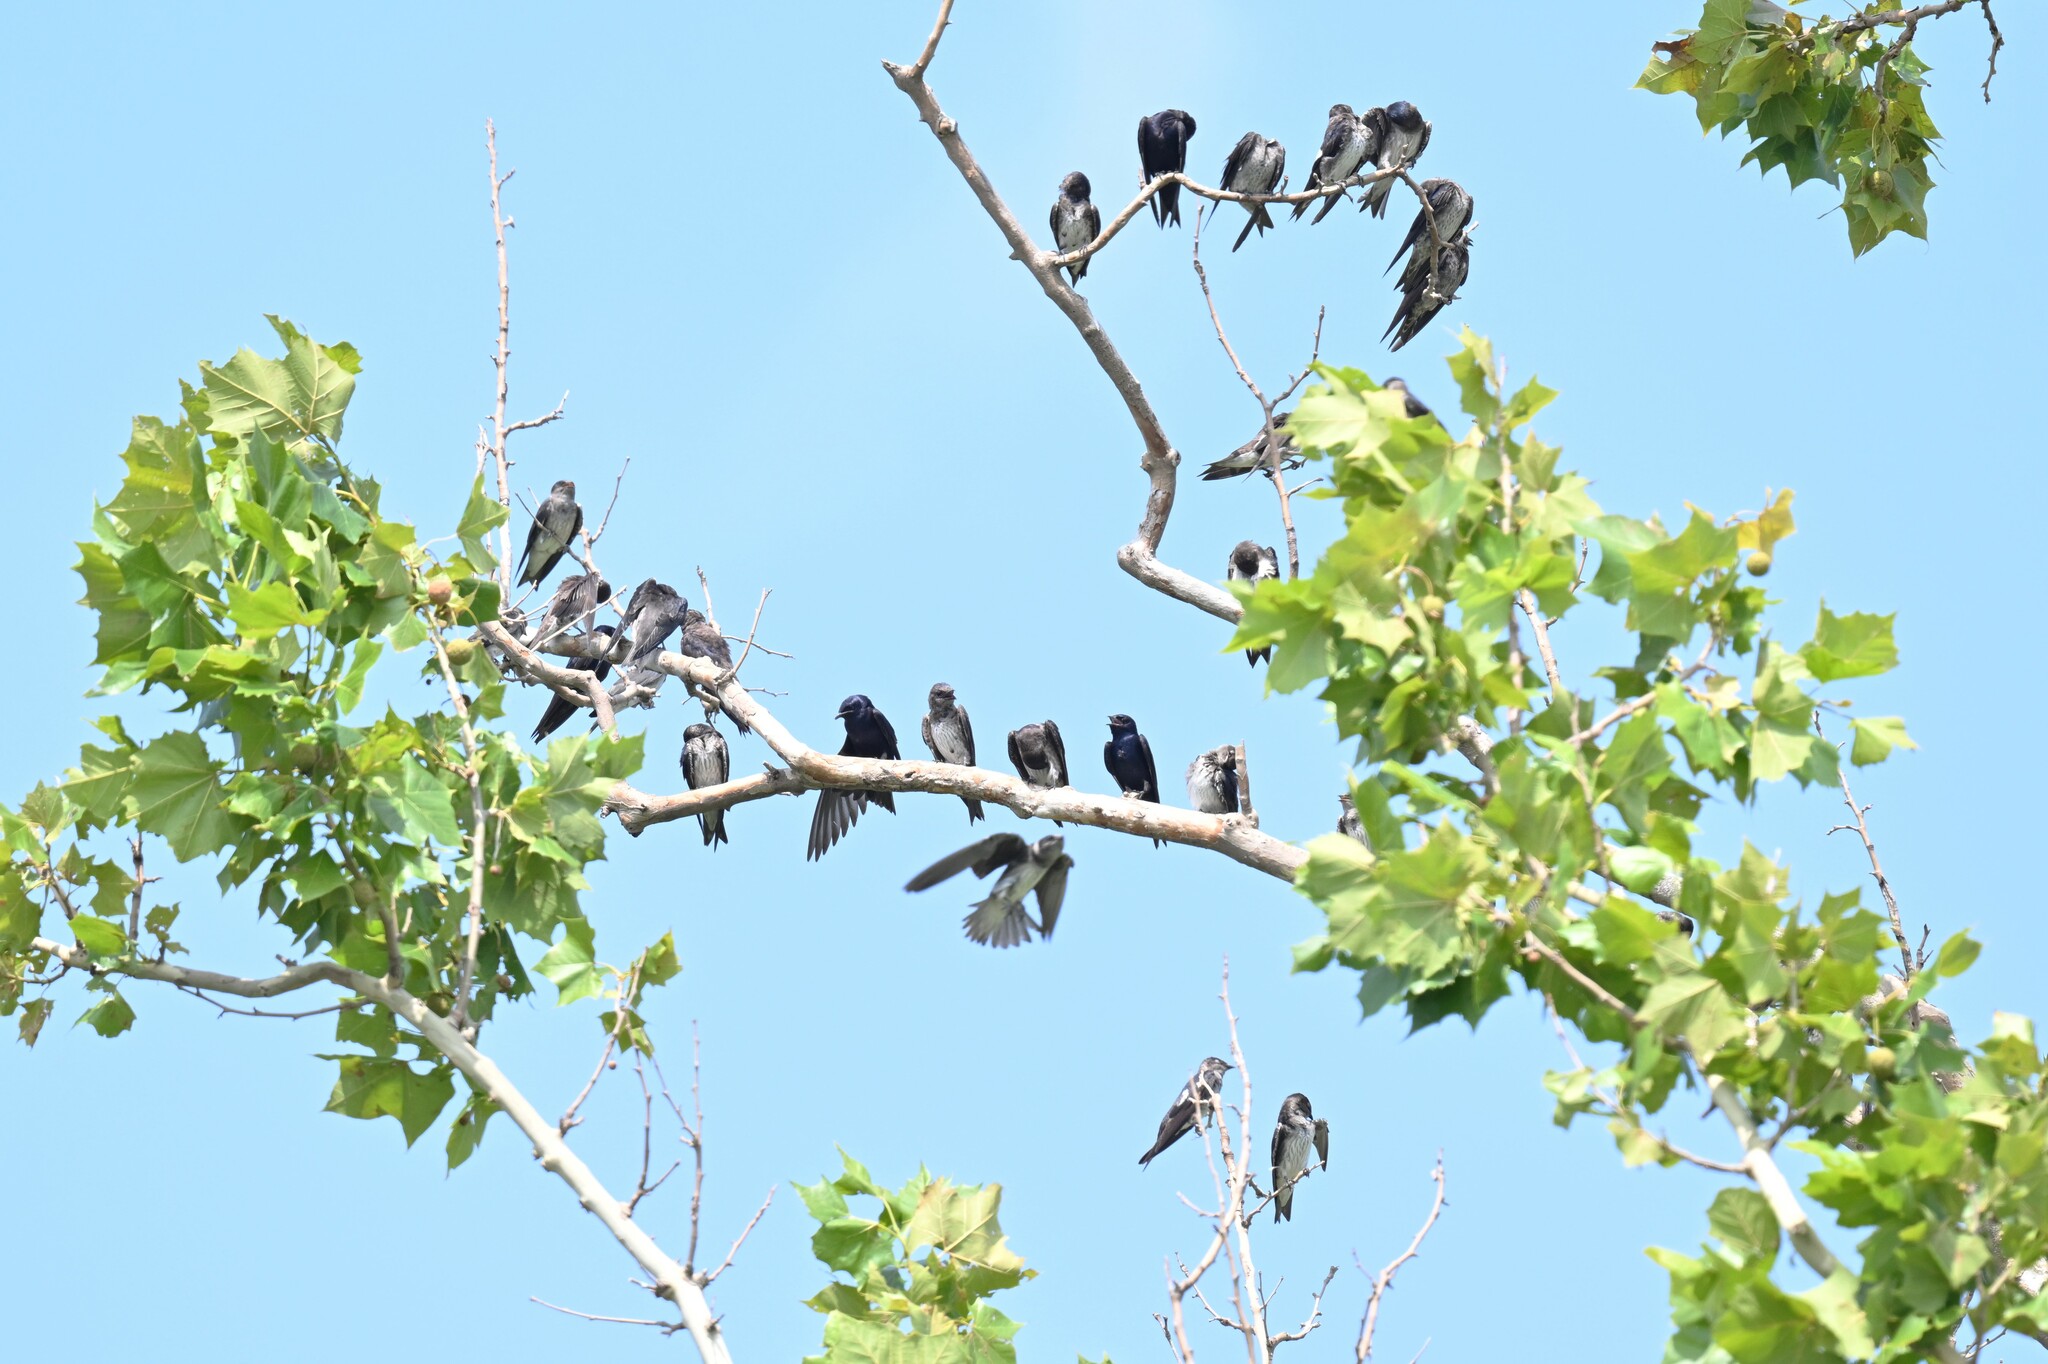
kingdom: Animalia
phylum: Chordata
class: Aves
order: Passeriformes
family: Hirundinidae
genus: Progne
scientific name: Progne subis
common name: Purple martin
